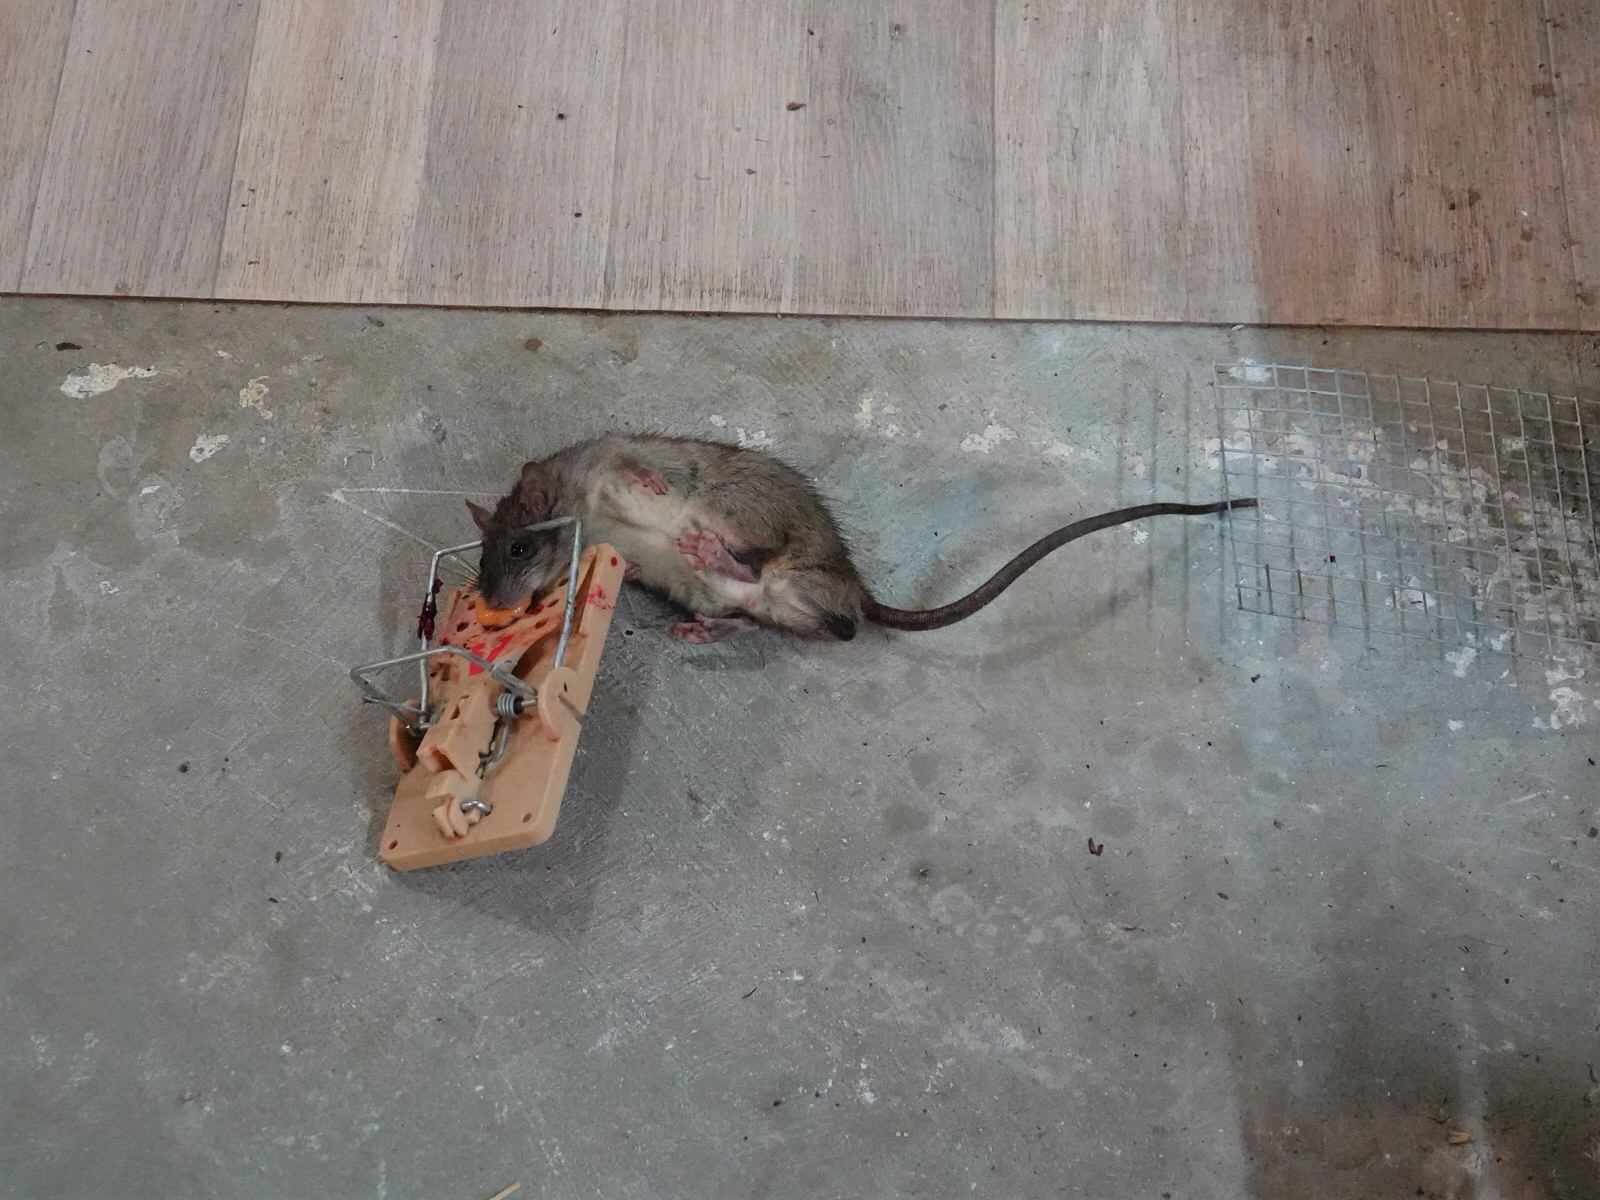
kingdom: Animalia
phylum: Chordata
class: Mammalia
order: Rodentia
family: Muridae
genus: Rattus
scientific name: Rattus rattus
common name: Black rat
